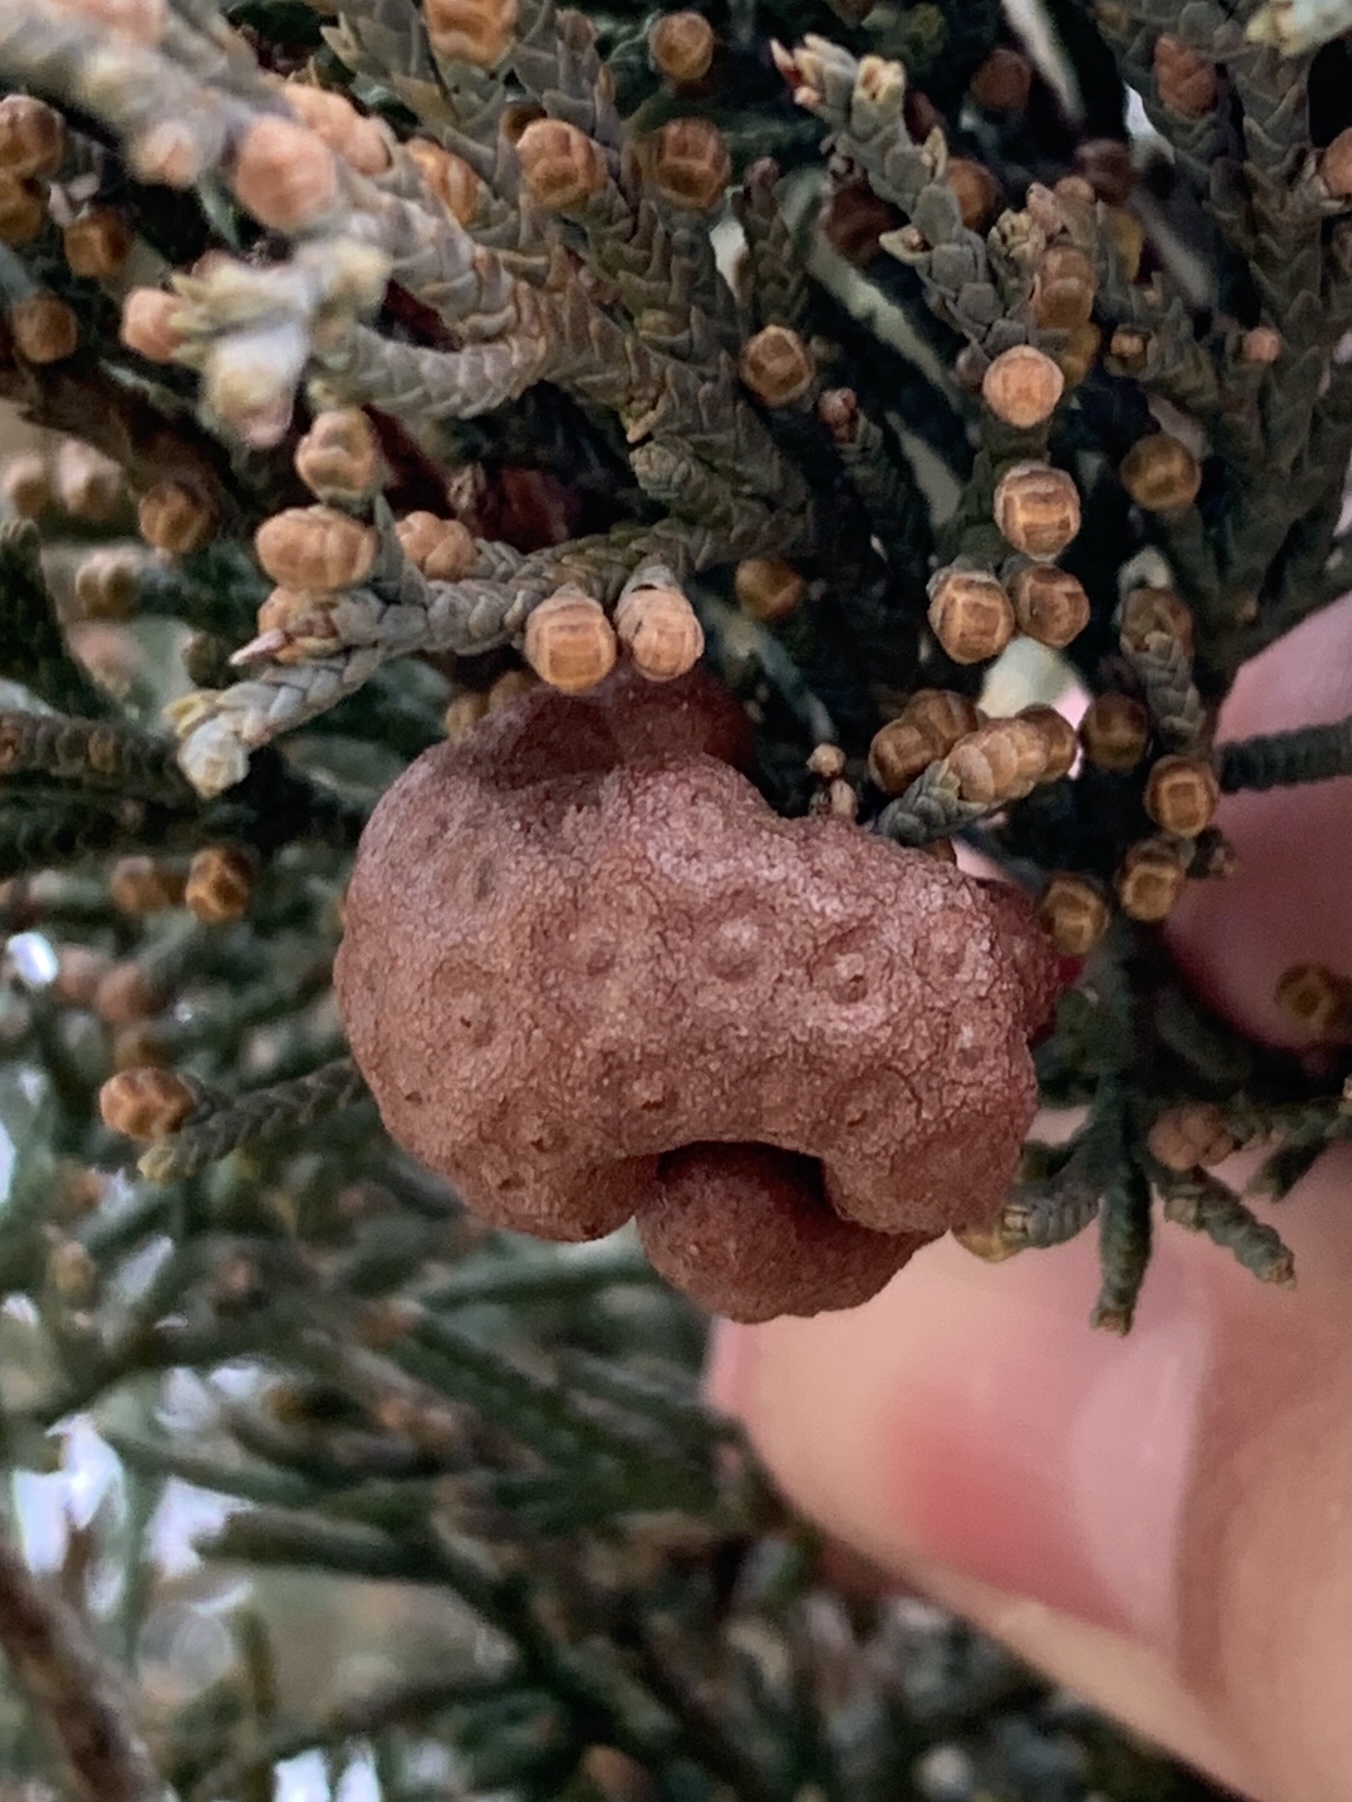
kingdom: Fungi
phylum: Basidiomycota
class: Pucciniomycetes
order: Pucciniales
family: Gymnosporangiaceae
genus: Gymnosporangium
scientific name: Gymnosporangium juniperi-virginianae
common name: Juniper-apple rust
